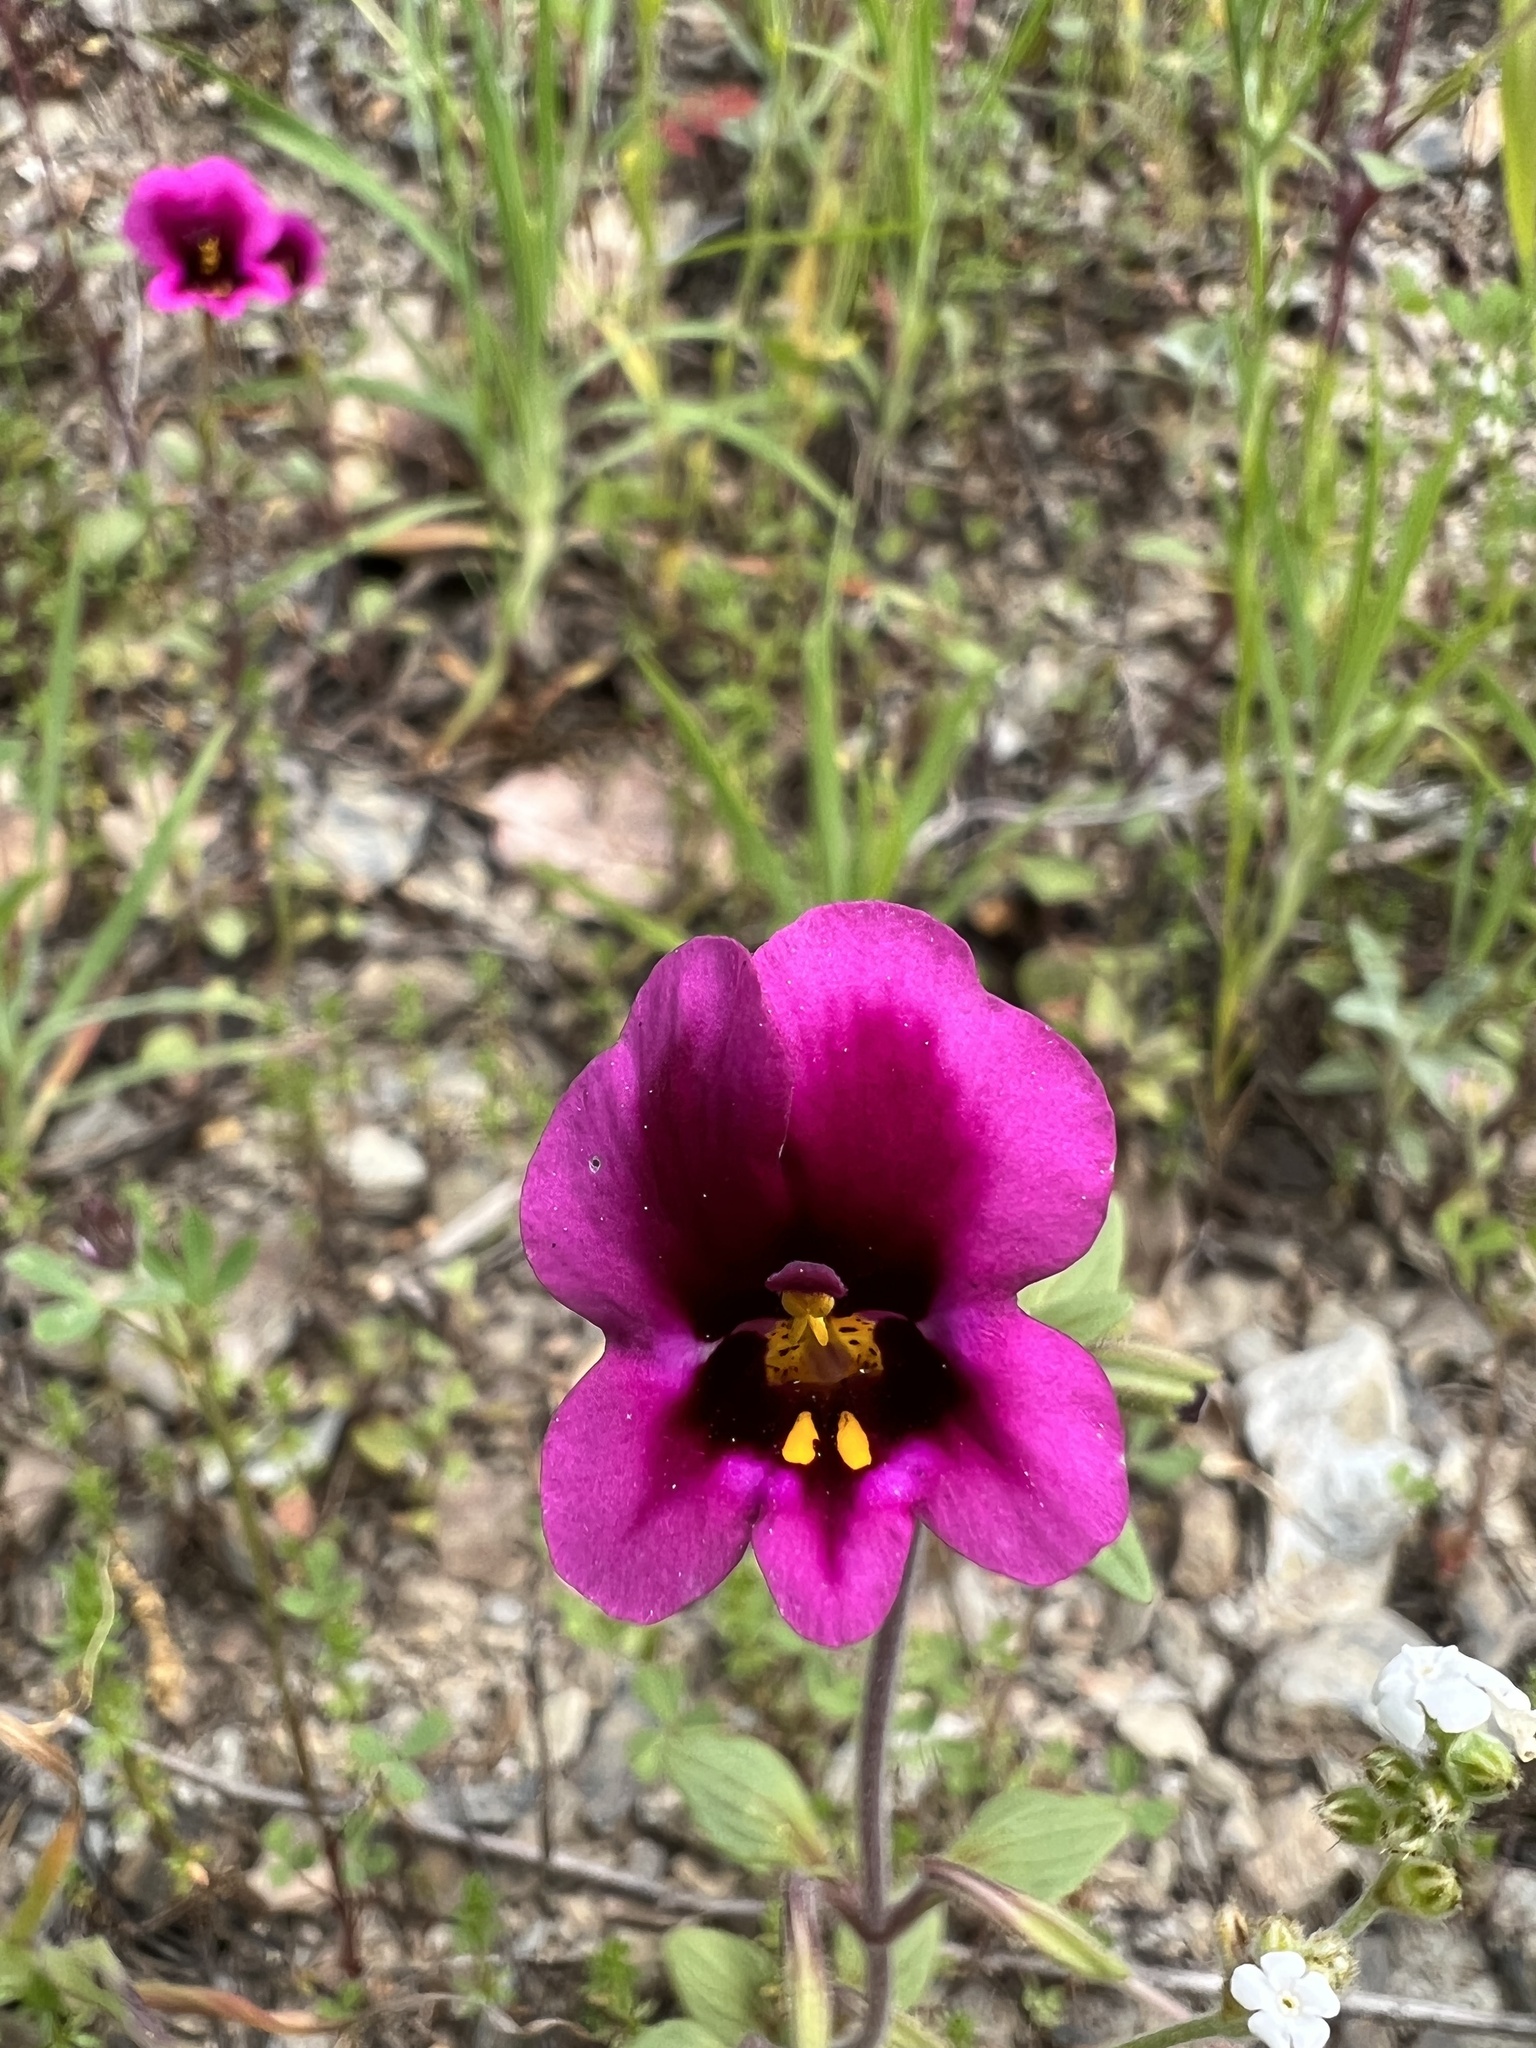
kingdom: Plantae
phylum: Tracheophyta
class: Magnoliopsida
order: Lamiales
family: Phrymaceae
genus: Diplacus
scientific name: Diplacus kelloggii
